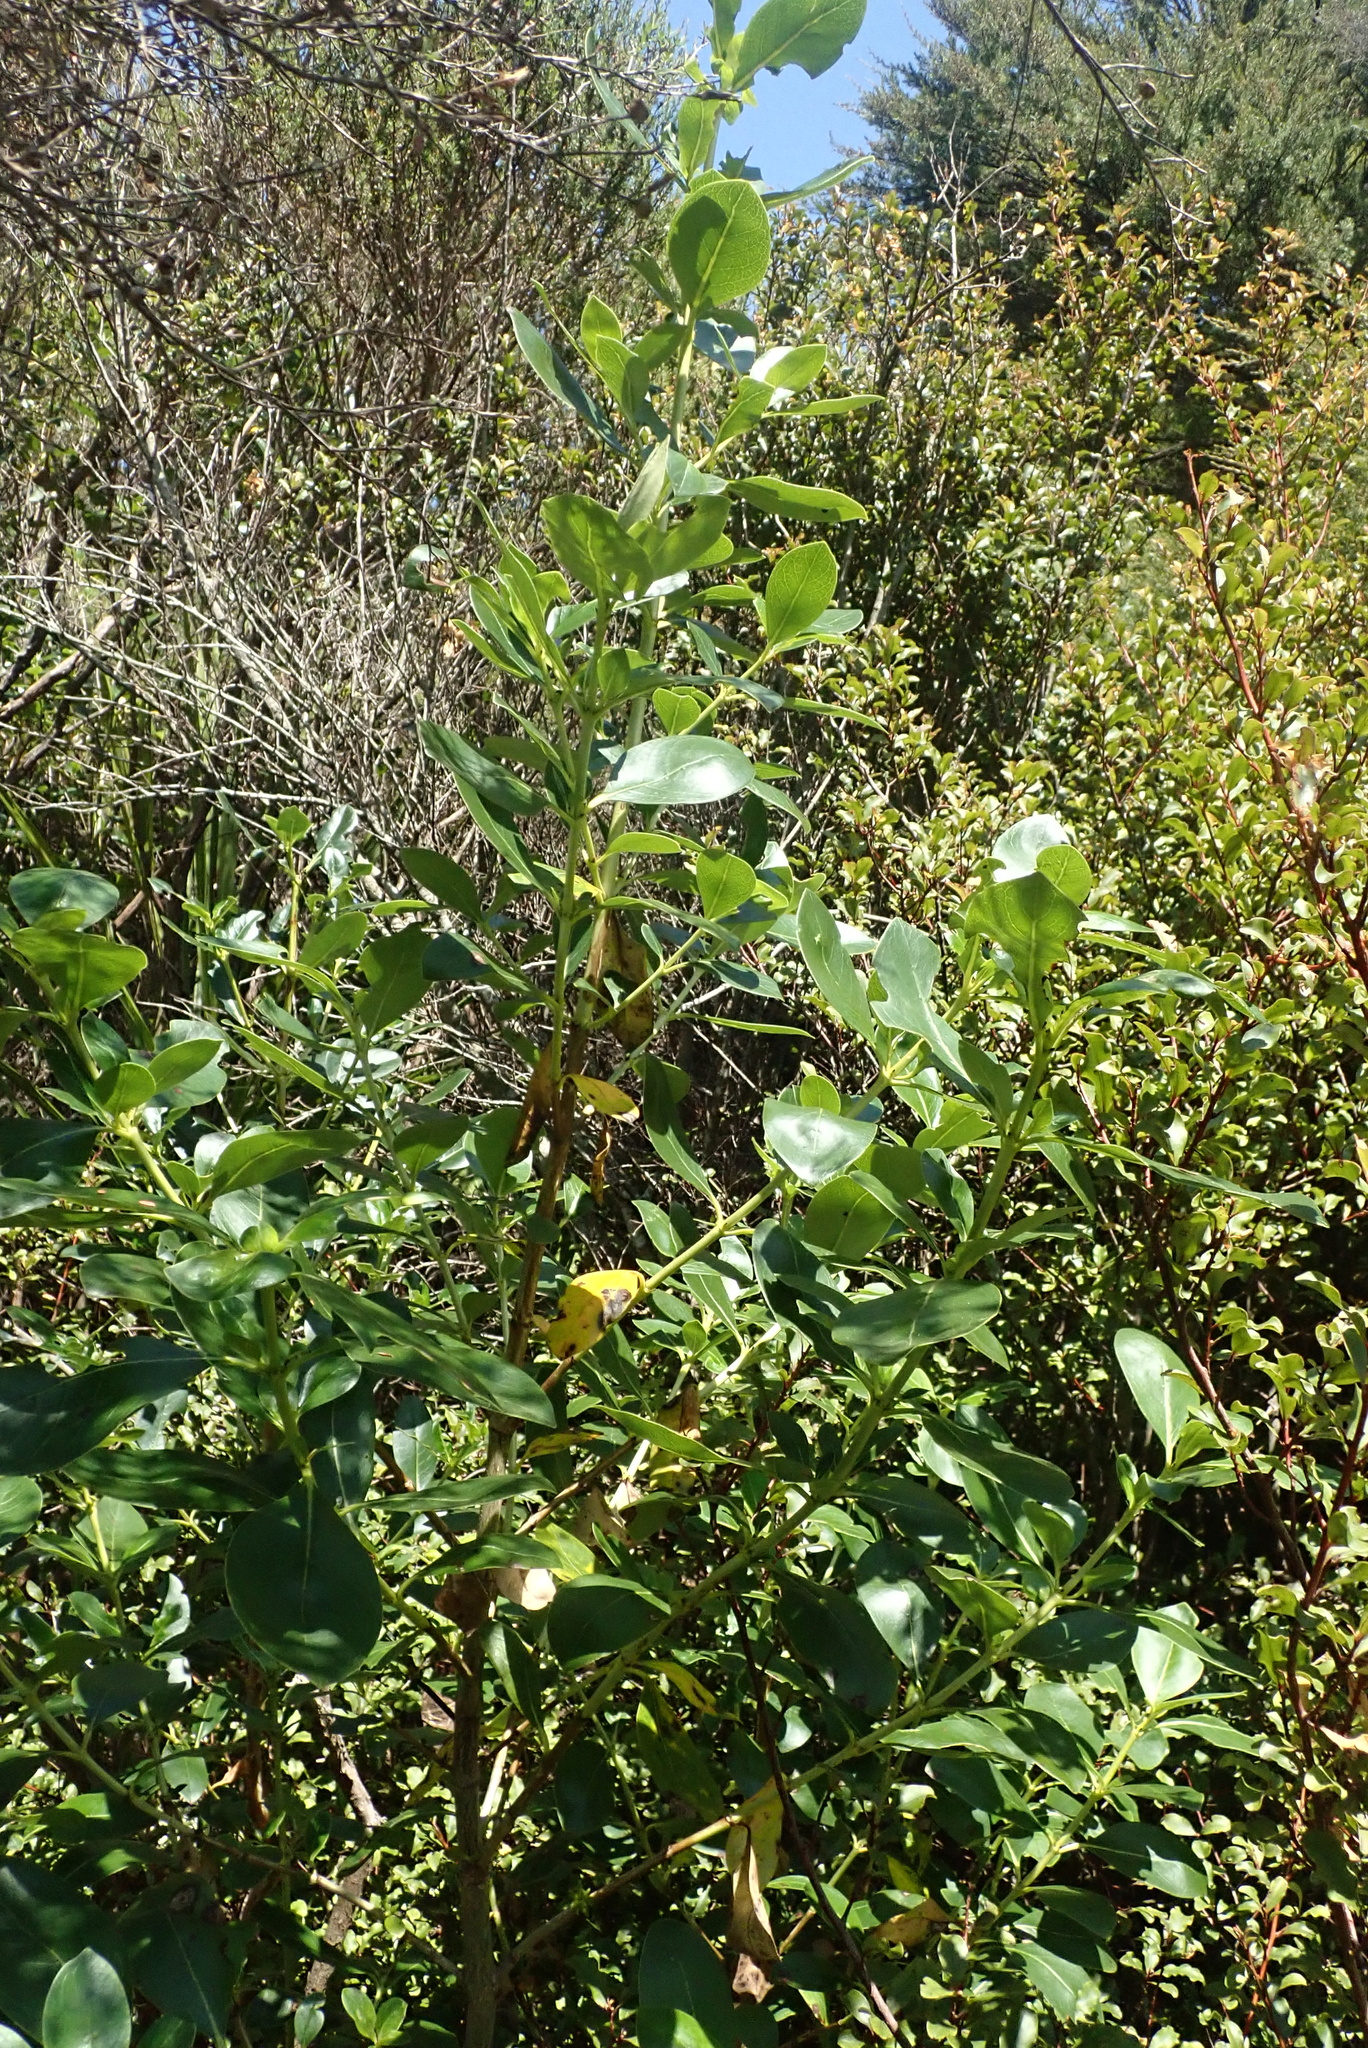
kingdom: Plantae
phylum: Tracheophyta
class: Magnoliopsida
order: Gentianales
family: Rubiaceae
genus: Coprosma
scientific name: Coprosma robusta
